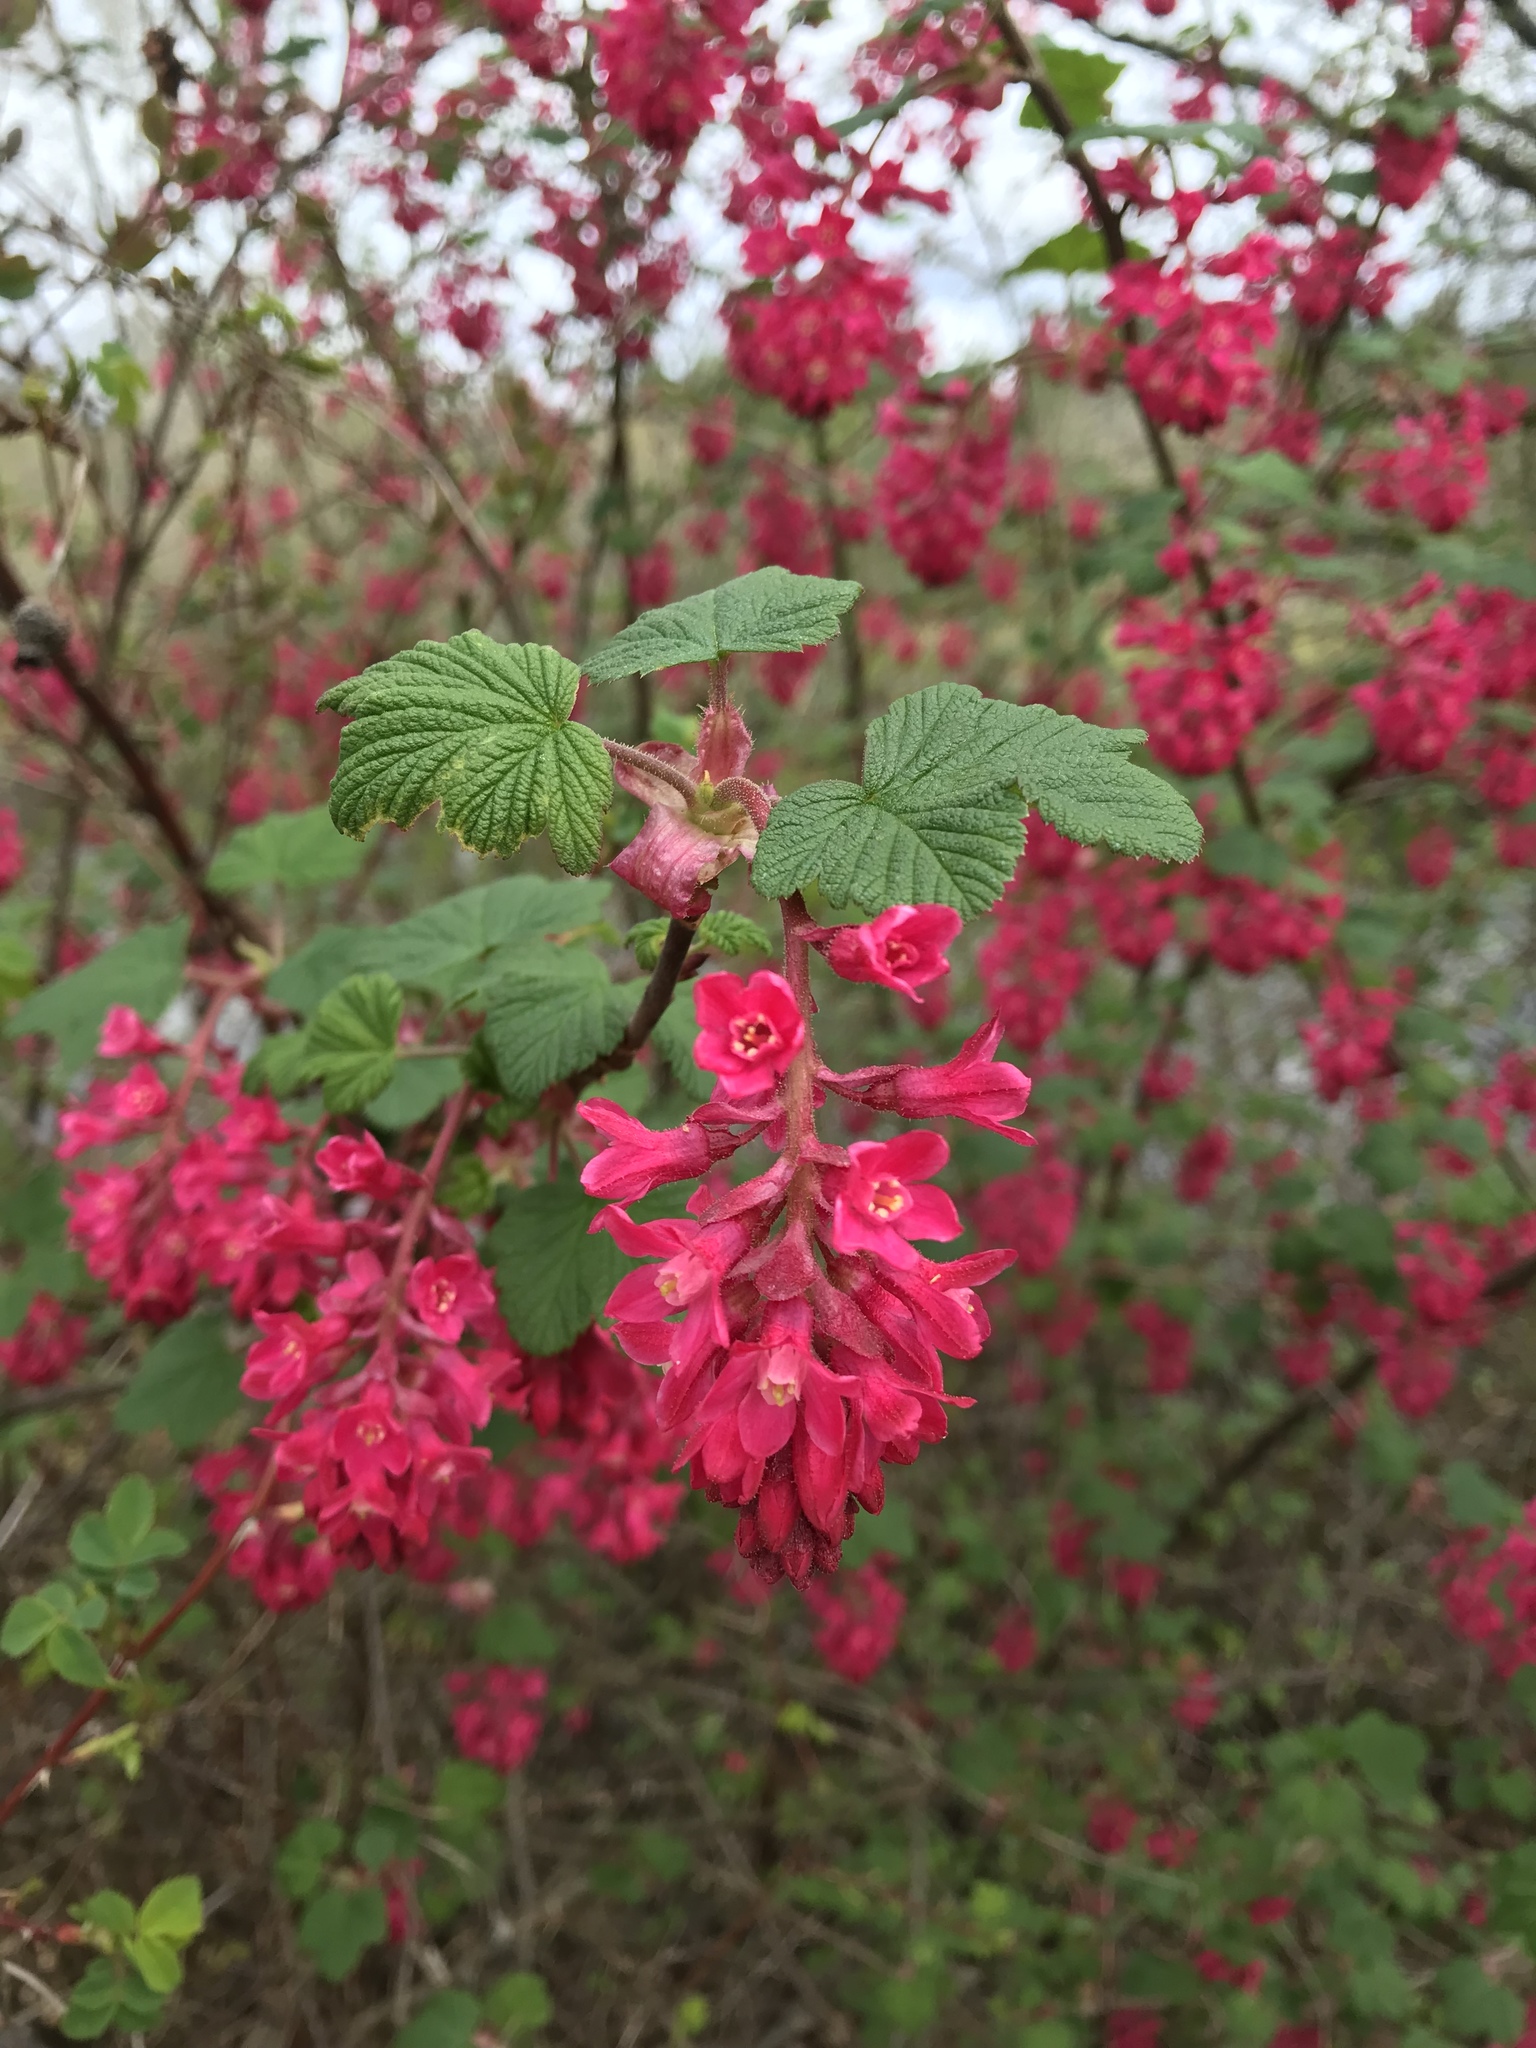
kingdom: Plantae
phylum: Tracheophyta
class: Magnoliopsida
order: Saxifragales
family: Grossulariaceae
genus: Ribes
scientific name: Ribes sanguineum
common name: Flowering currant
